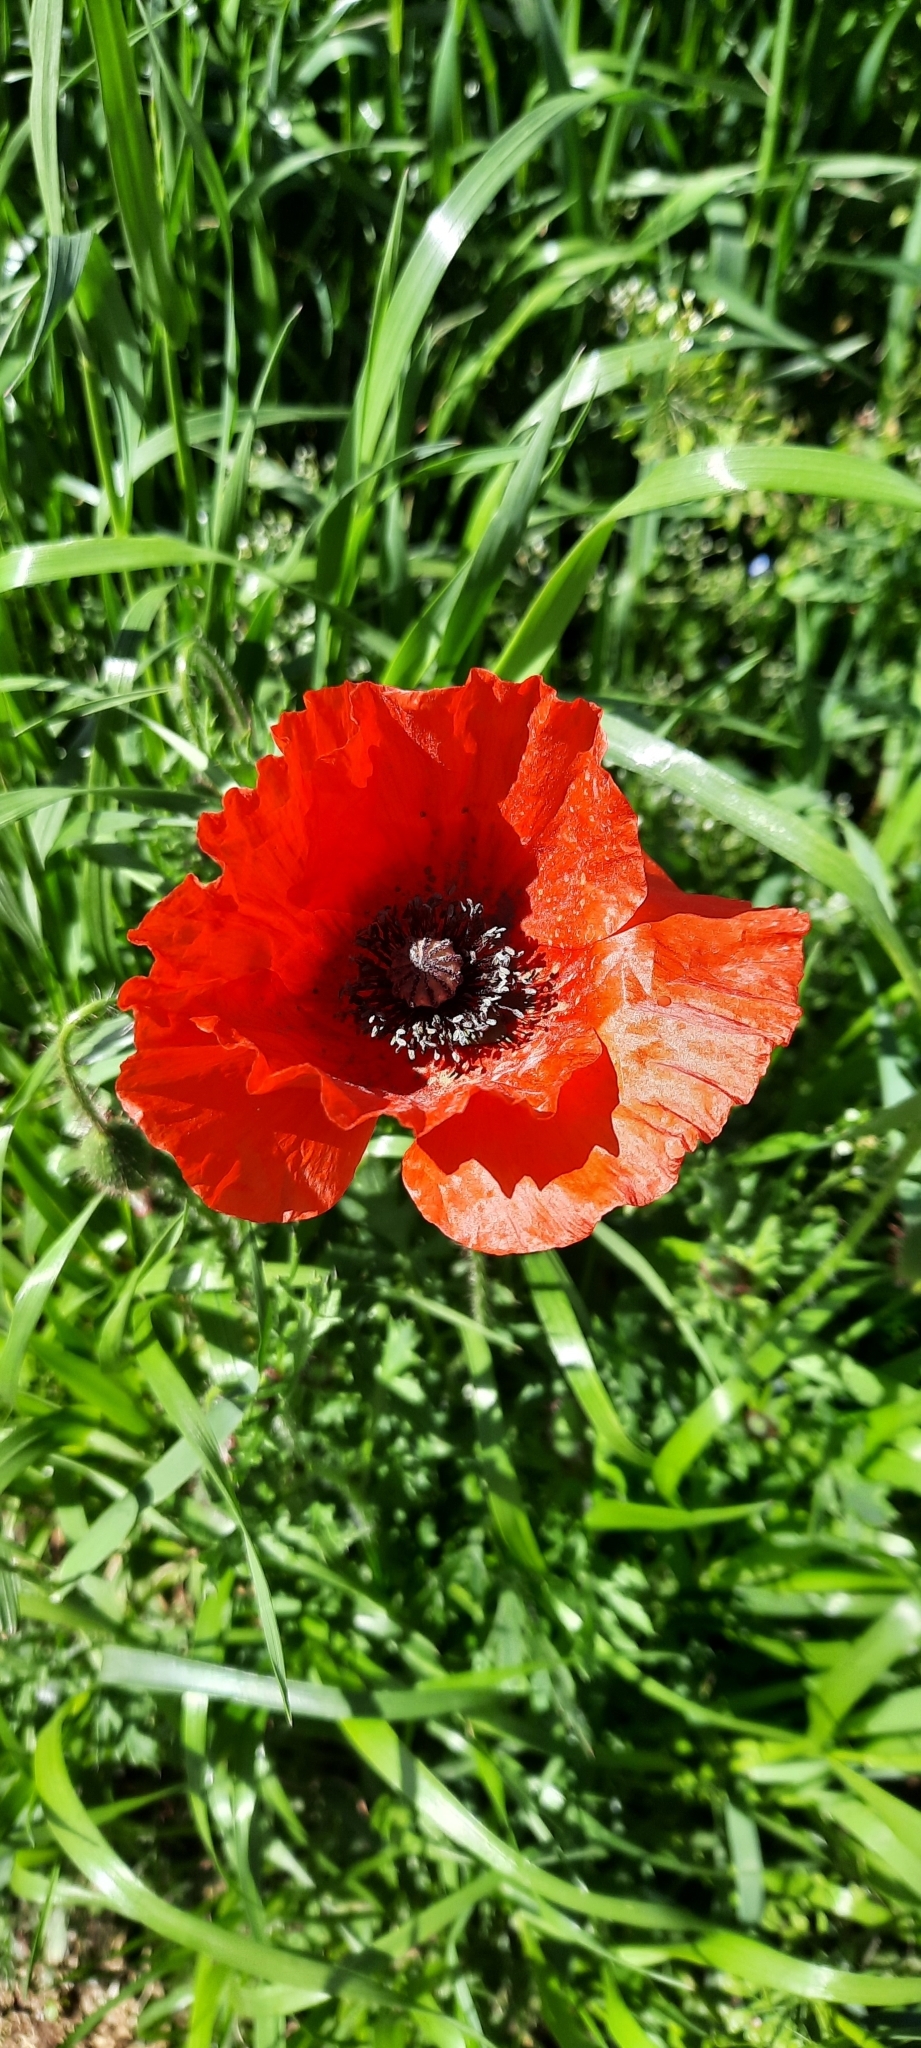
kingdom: Plantae
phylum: Tracheophyta
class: Magnoliopsida
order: Ranunculales
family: Papaveraceae
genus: Papaver
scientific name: Papaver rhoeas
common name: Corn poppy
